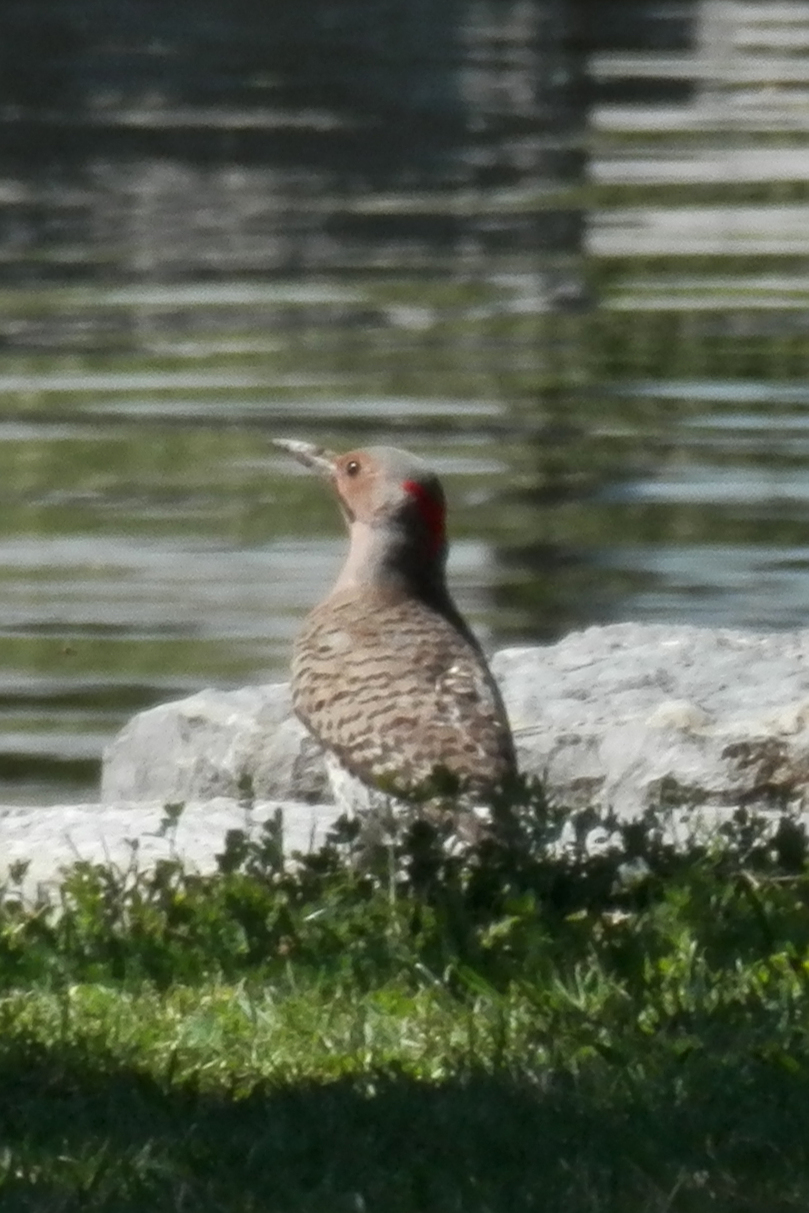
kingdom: Animalia
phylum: Chordata
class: Aves
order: Piciformes
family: Picidae
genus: Colaptes
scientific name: Colaptes auratus
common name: Northern flicker
